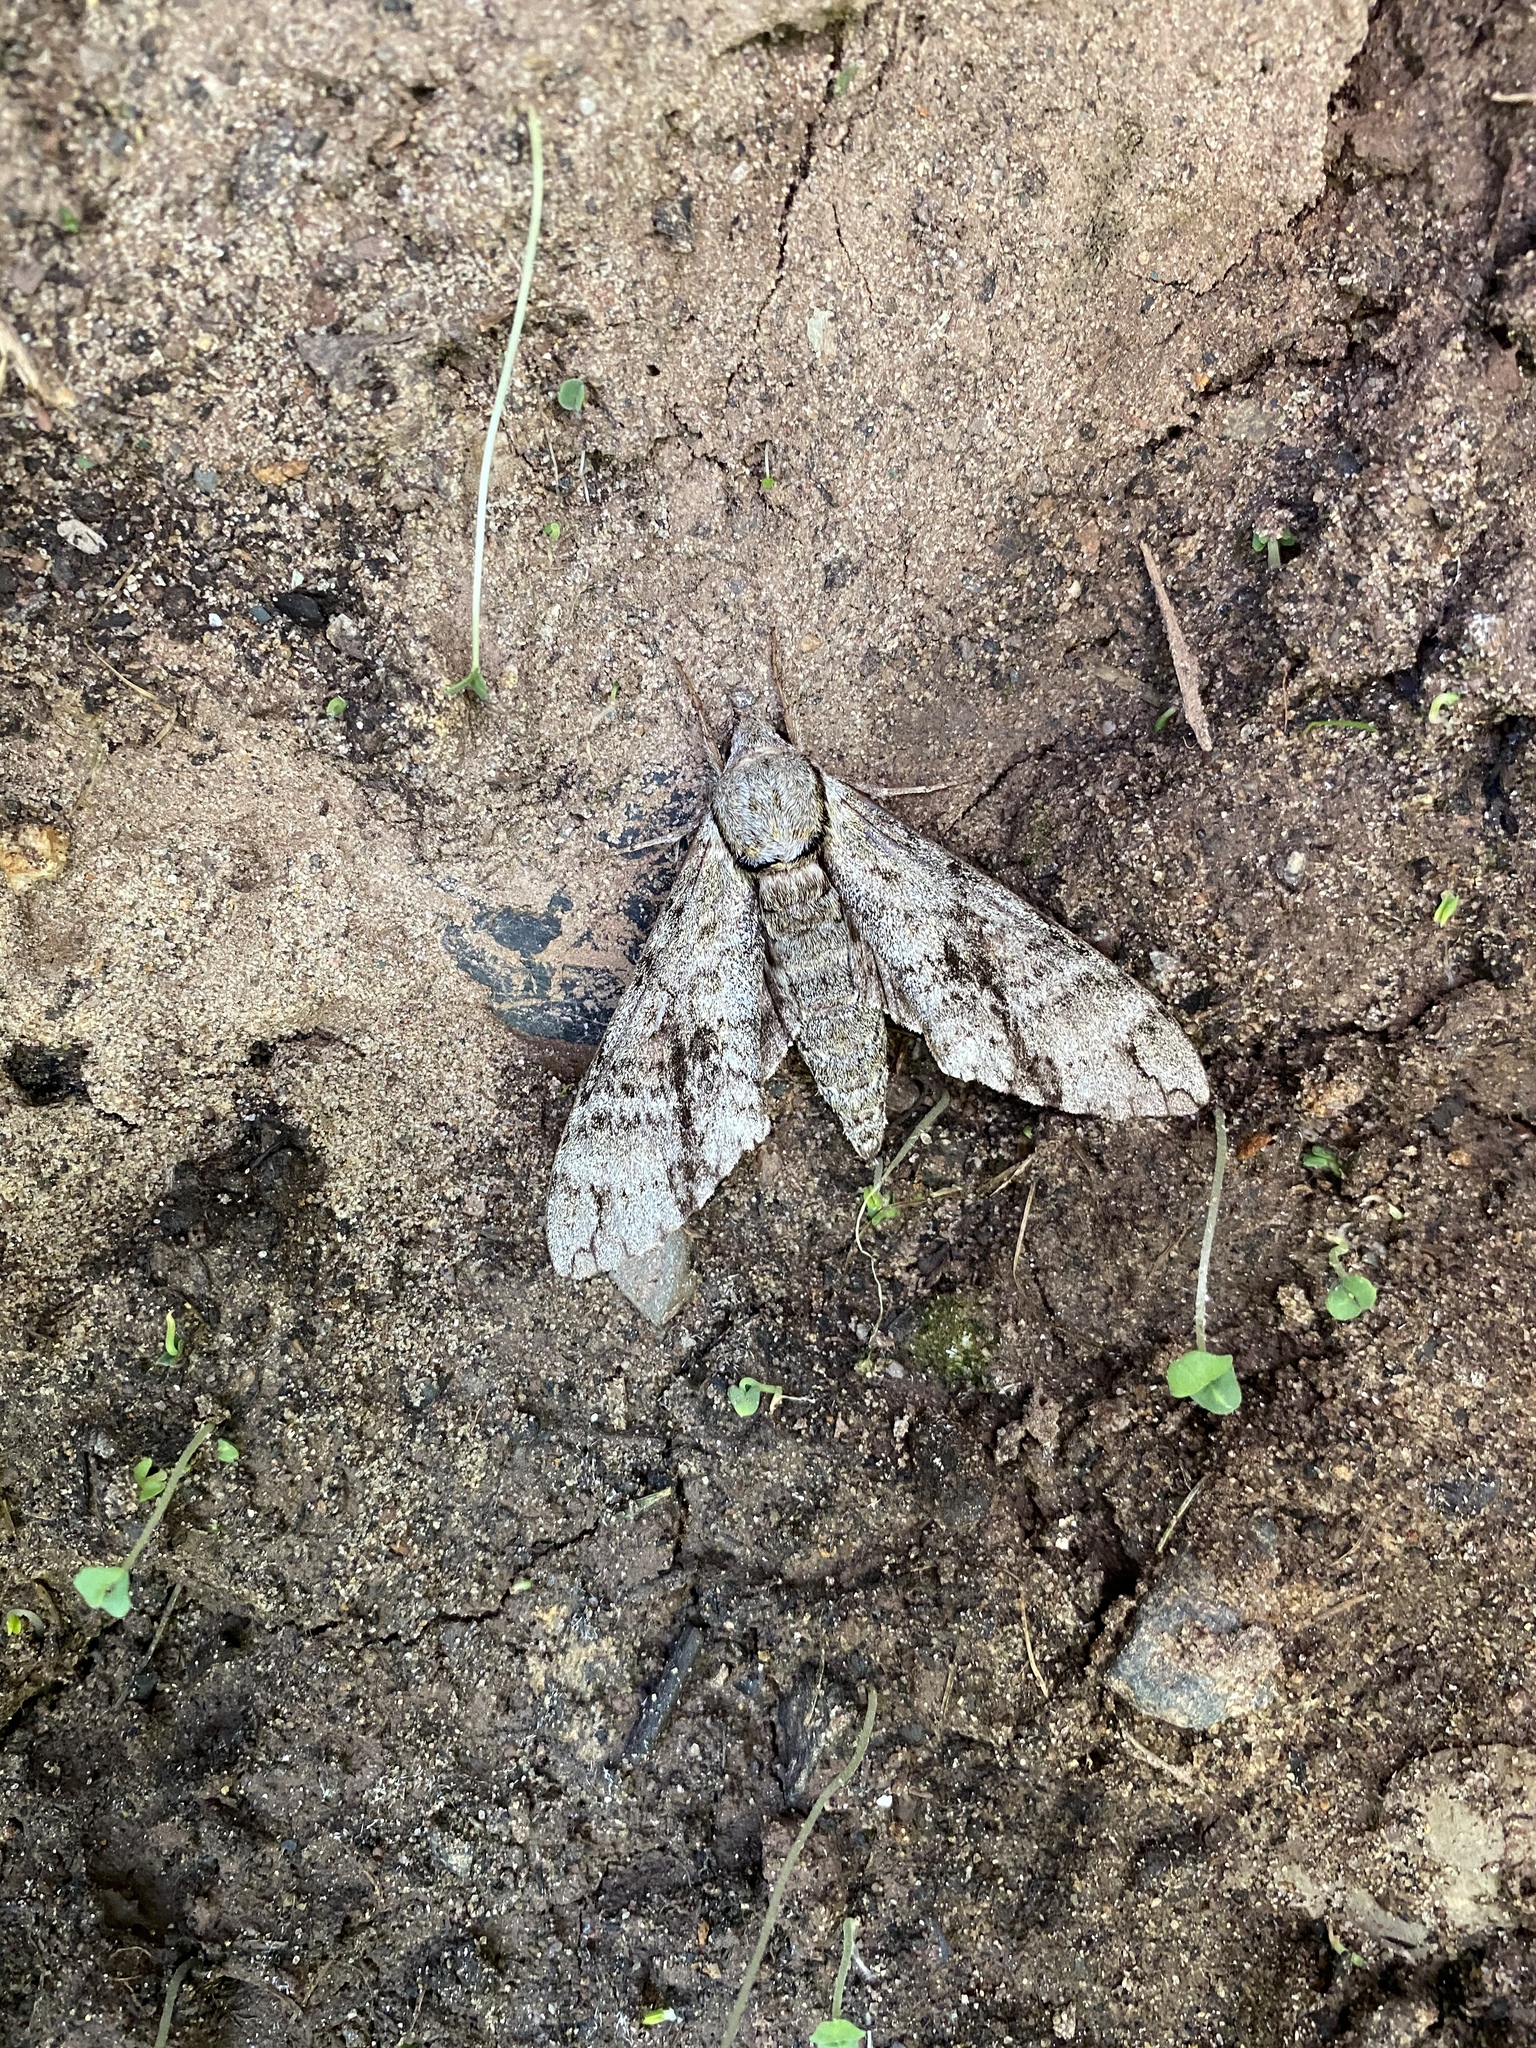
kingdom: Animalia
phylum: Arthropoda
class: Insecta
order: Lepidoptera
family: Sphingidae
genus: Manduca
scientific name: Manduca jasminearum
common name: Ash sphinx
